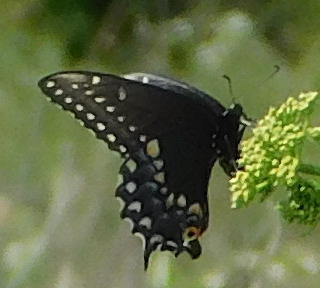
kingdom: Animalia
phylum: Arthropoda
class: Insecta
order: Lepidoptera
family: Papilionidae
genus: Papilio
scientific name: Papilio polyxenes
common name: Black swallowtail
